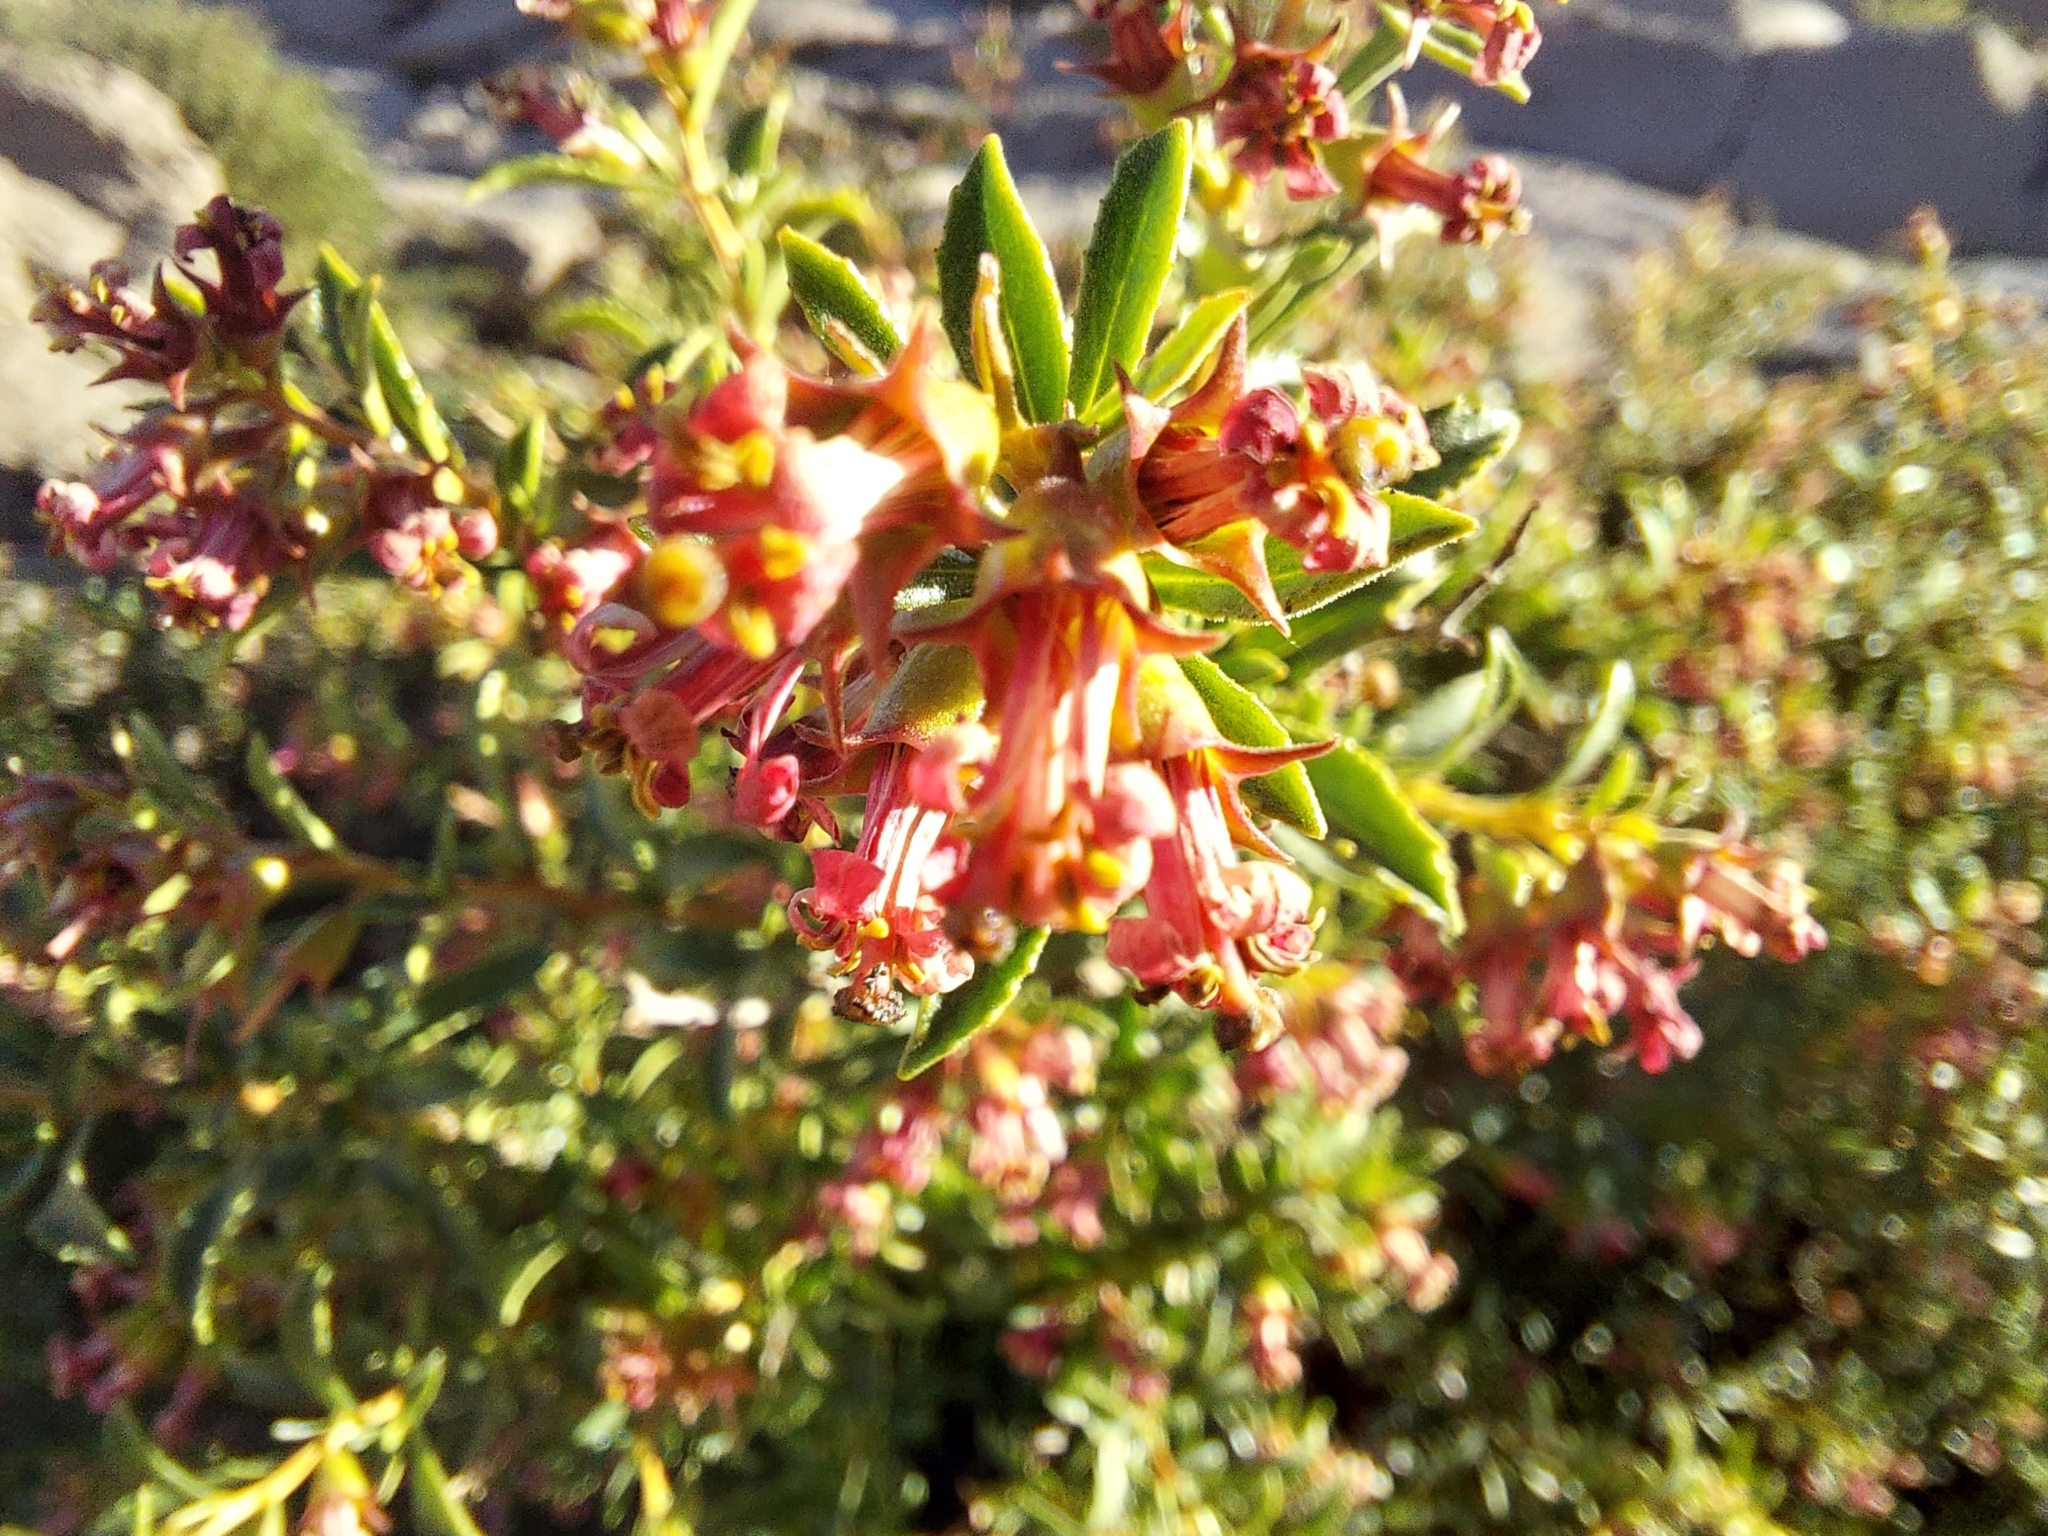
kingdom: Plantae
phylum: Tracheophyta
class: Magnoliopsida
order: Escalloniales
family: Escalloniaceae
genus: Escallonia
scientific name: Escallonia rubra
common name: Redclaws
